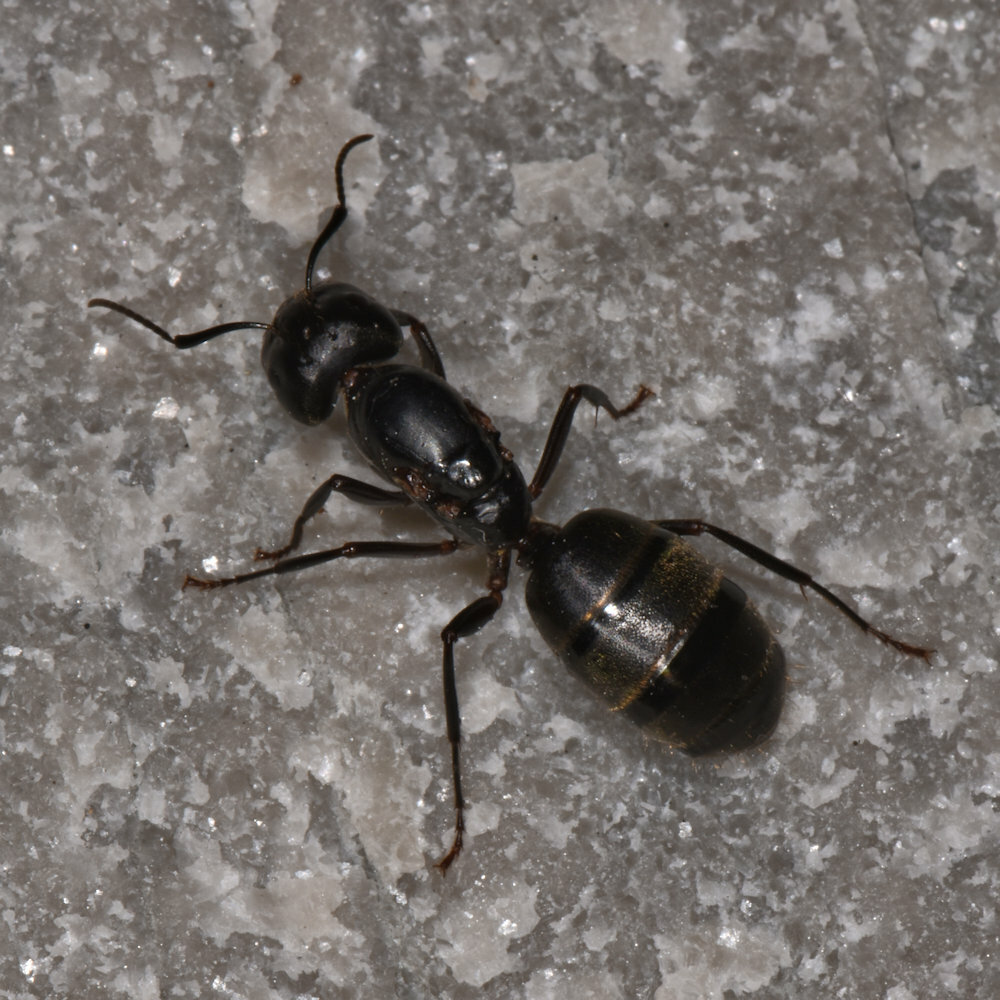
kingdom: Animalia
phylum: Arthropoda
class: Insecta
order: Hymenoptera
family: Formicidae
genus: Camponotus
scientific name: Camponotus pennsylvanicus
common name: Black carpenter ant
